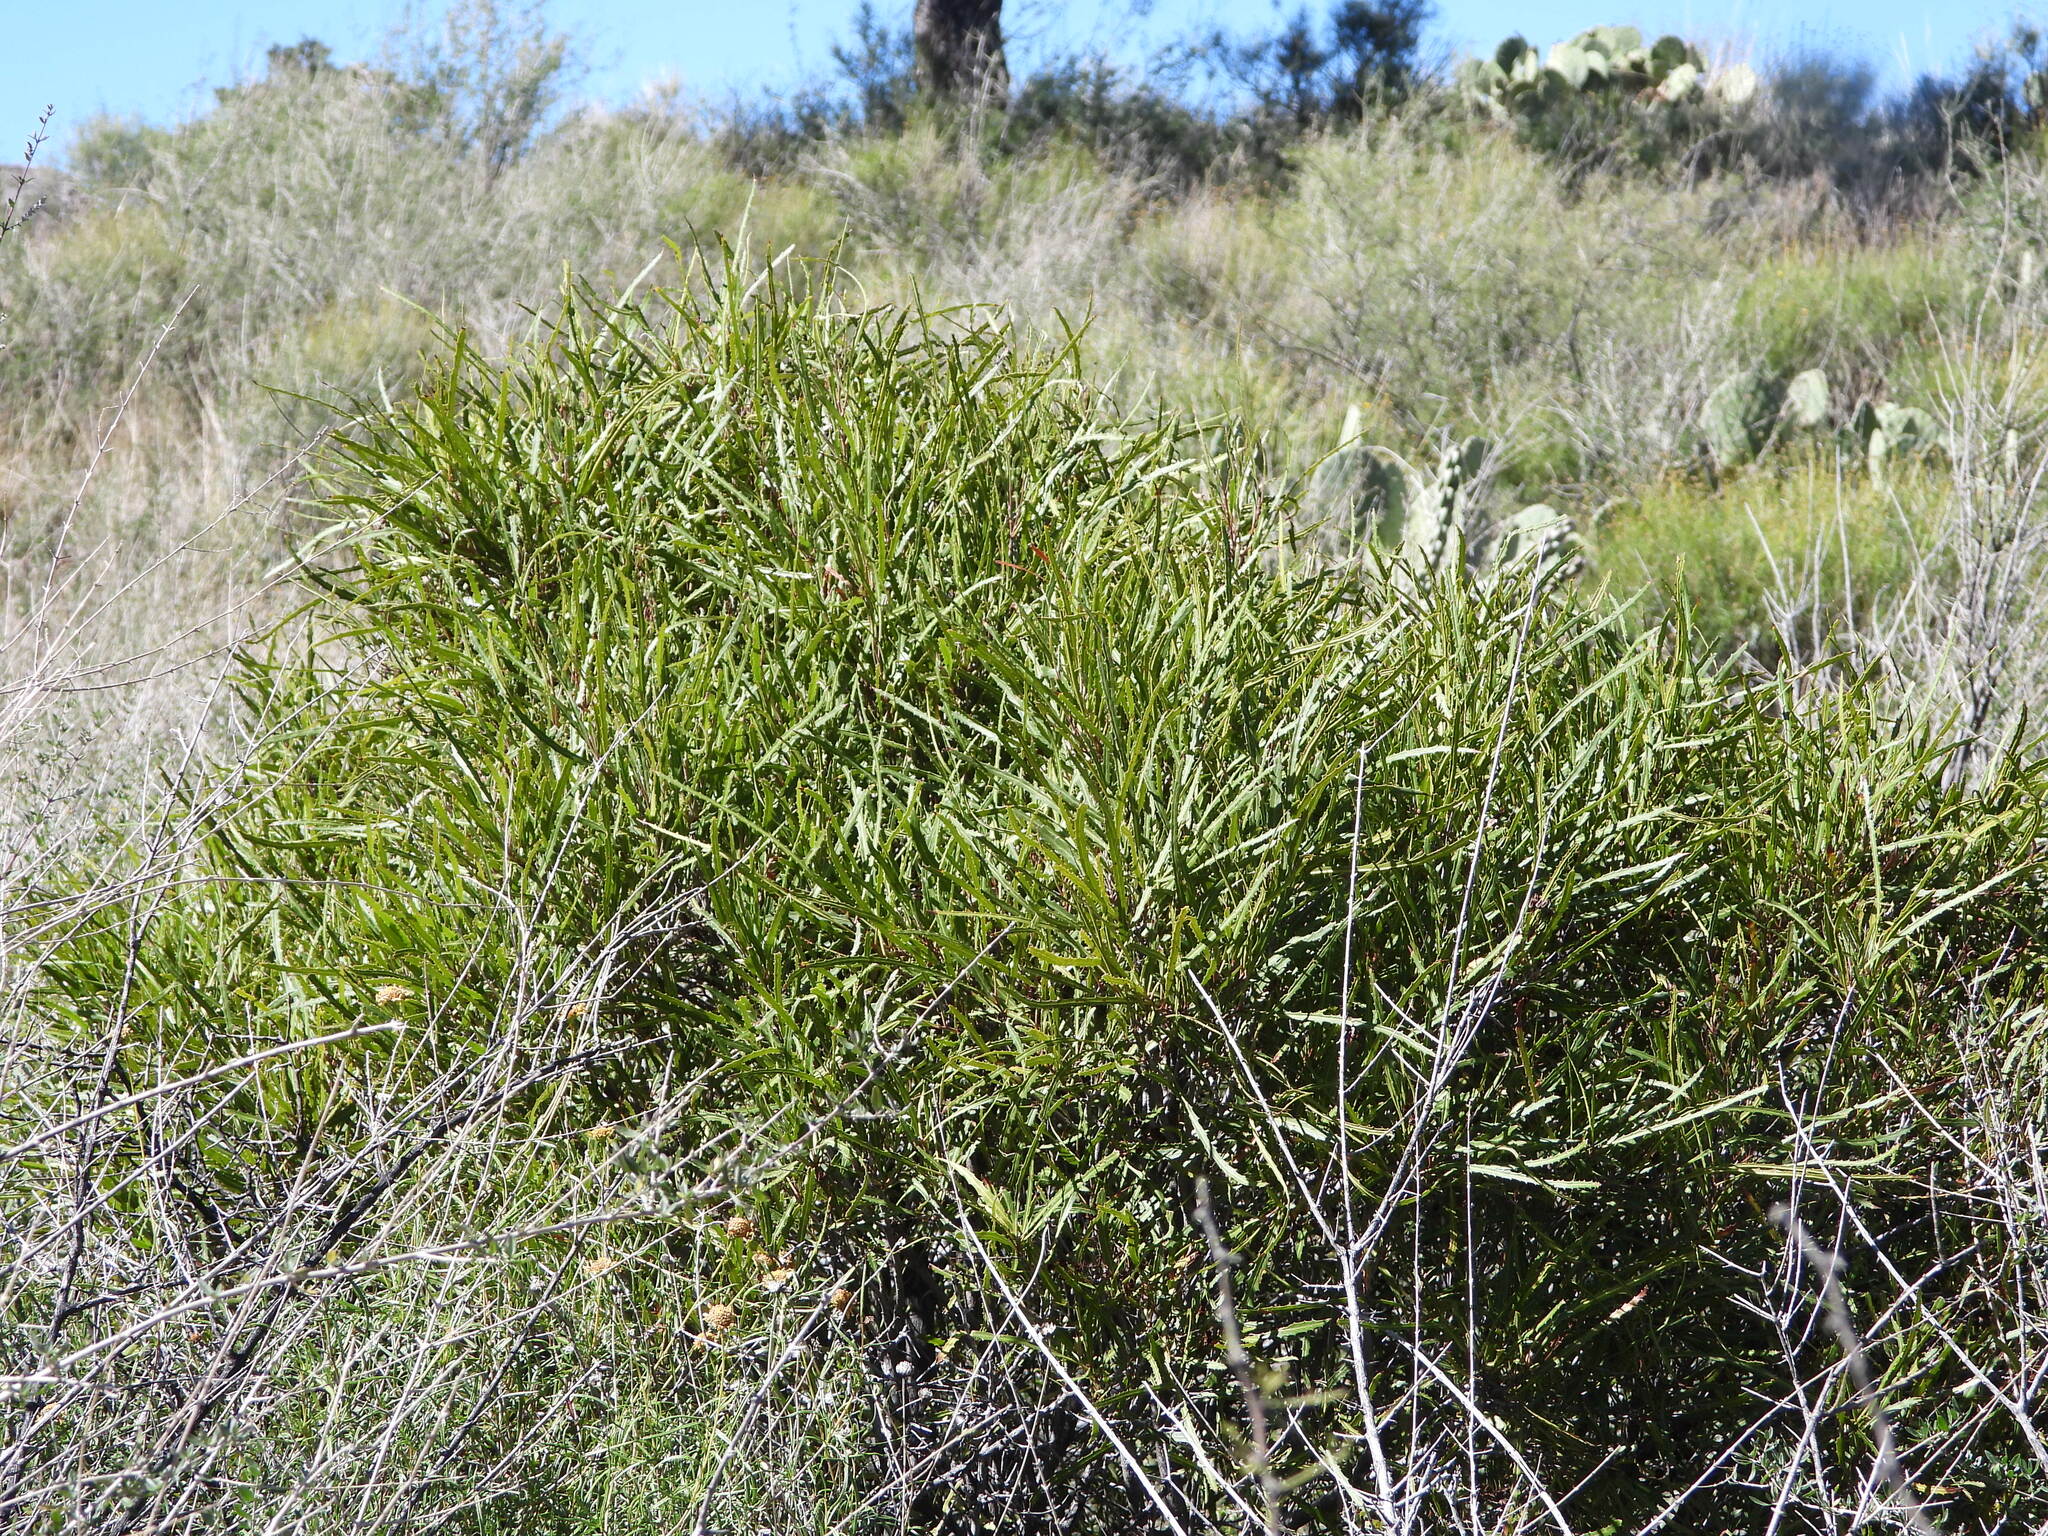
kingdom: Plantae
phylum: Tracheophyta
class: Magnoliopsida
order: Rosales
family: Rosaceae
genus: Vauquelinia
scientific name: Vauquelinia corymbosa
